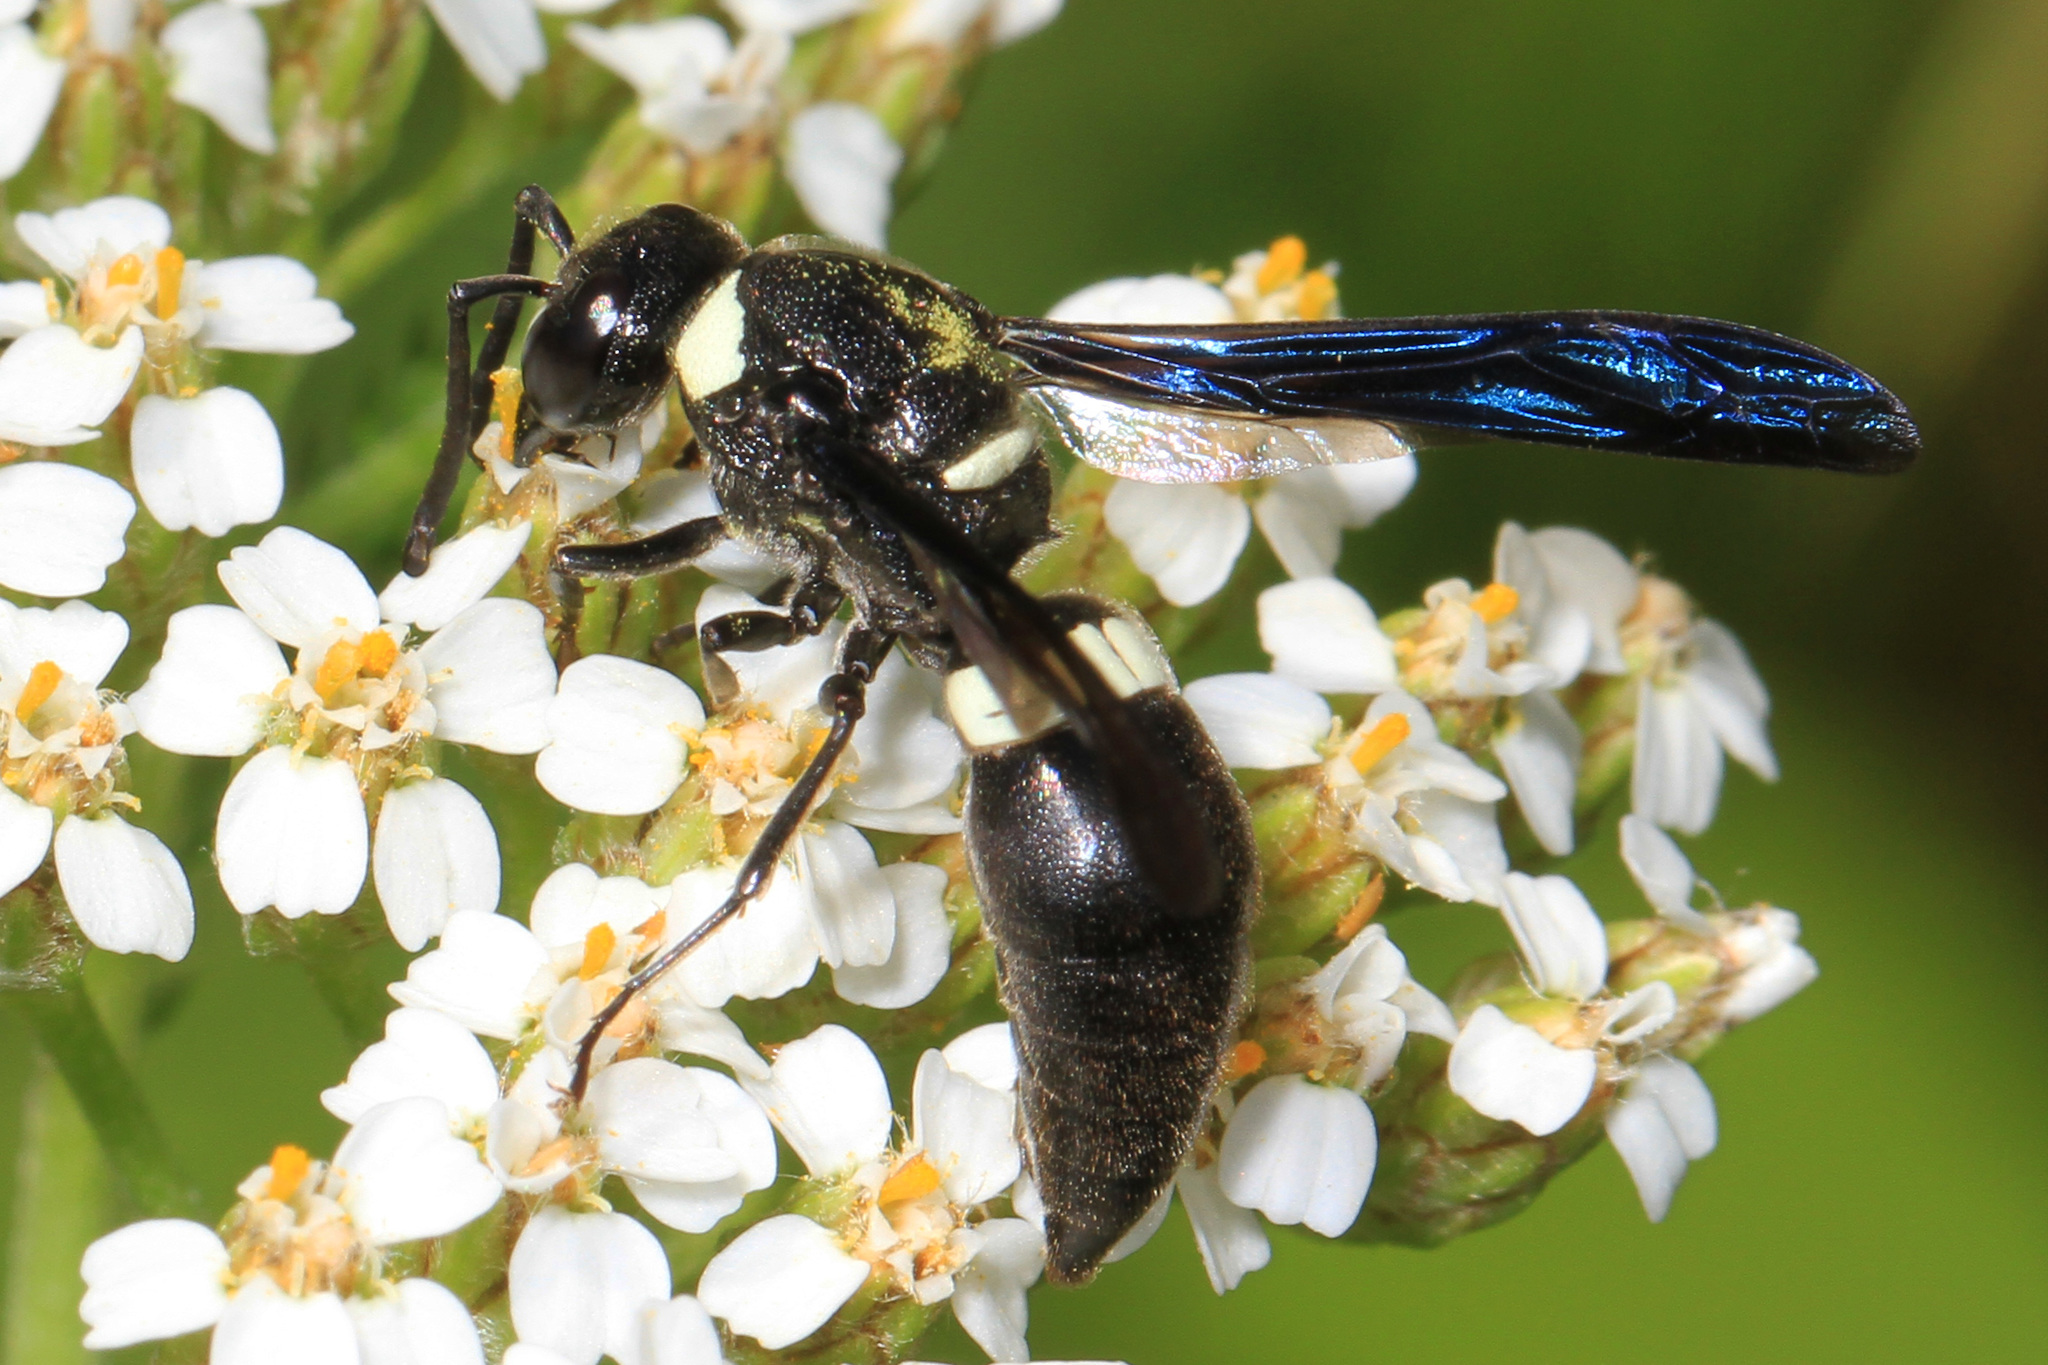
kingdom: Animalia
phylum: Arthropoda
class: Insecta
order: Hymenoptera
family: Eumenidae
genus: Monobia
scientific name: Monobia quadridens
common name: Four-toothed mason wasp
